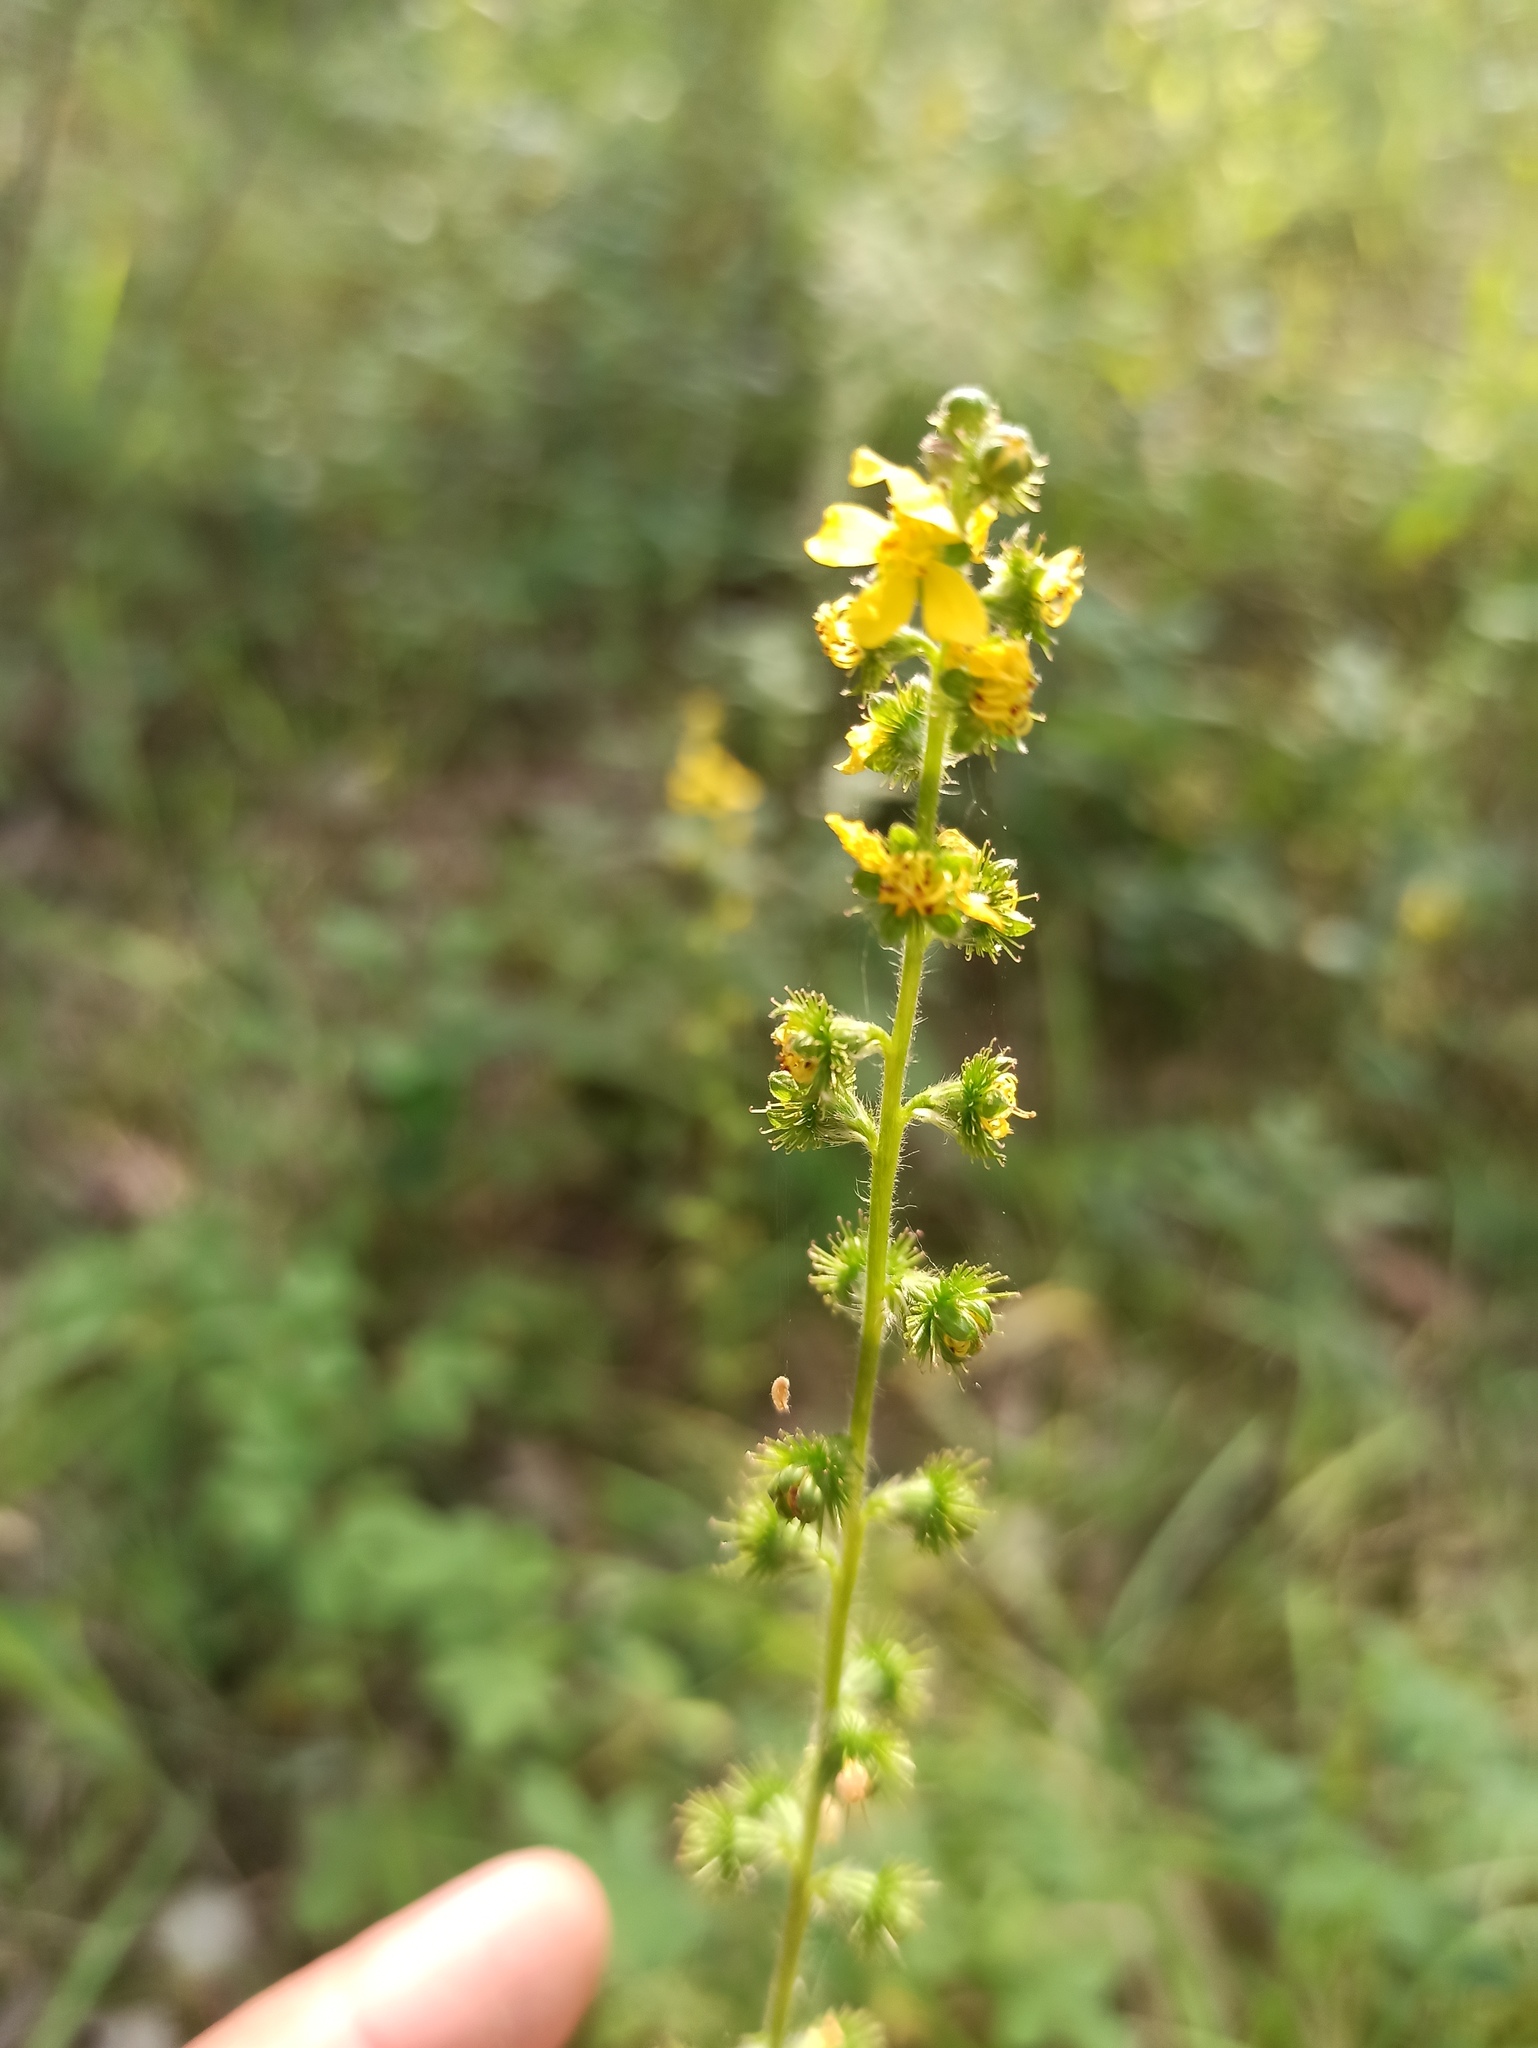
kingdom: Plantae
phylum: Tracheophyta
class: Magnoliopsida
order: Rosales
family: Rosaceae
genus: Agrimonia
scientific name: Agrimonia eupatoria
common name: Agrimony
